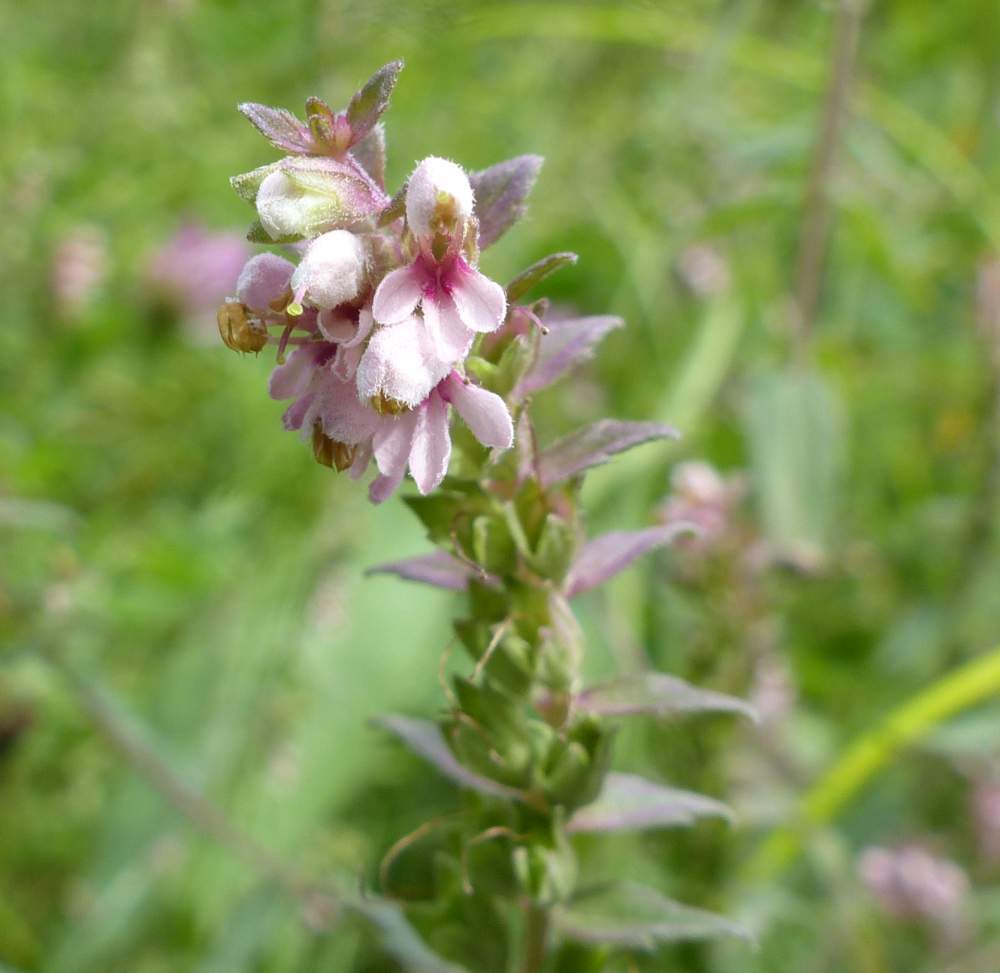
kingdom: Plantae
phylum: Tracheophyta
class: Magnoliopsida
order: Lamiales
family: Orobanchaceae
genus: Odontites
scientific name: Odontites vulgaris
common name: Broomrape
